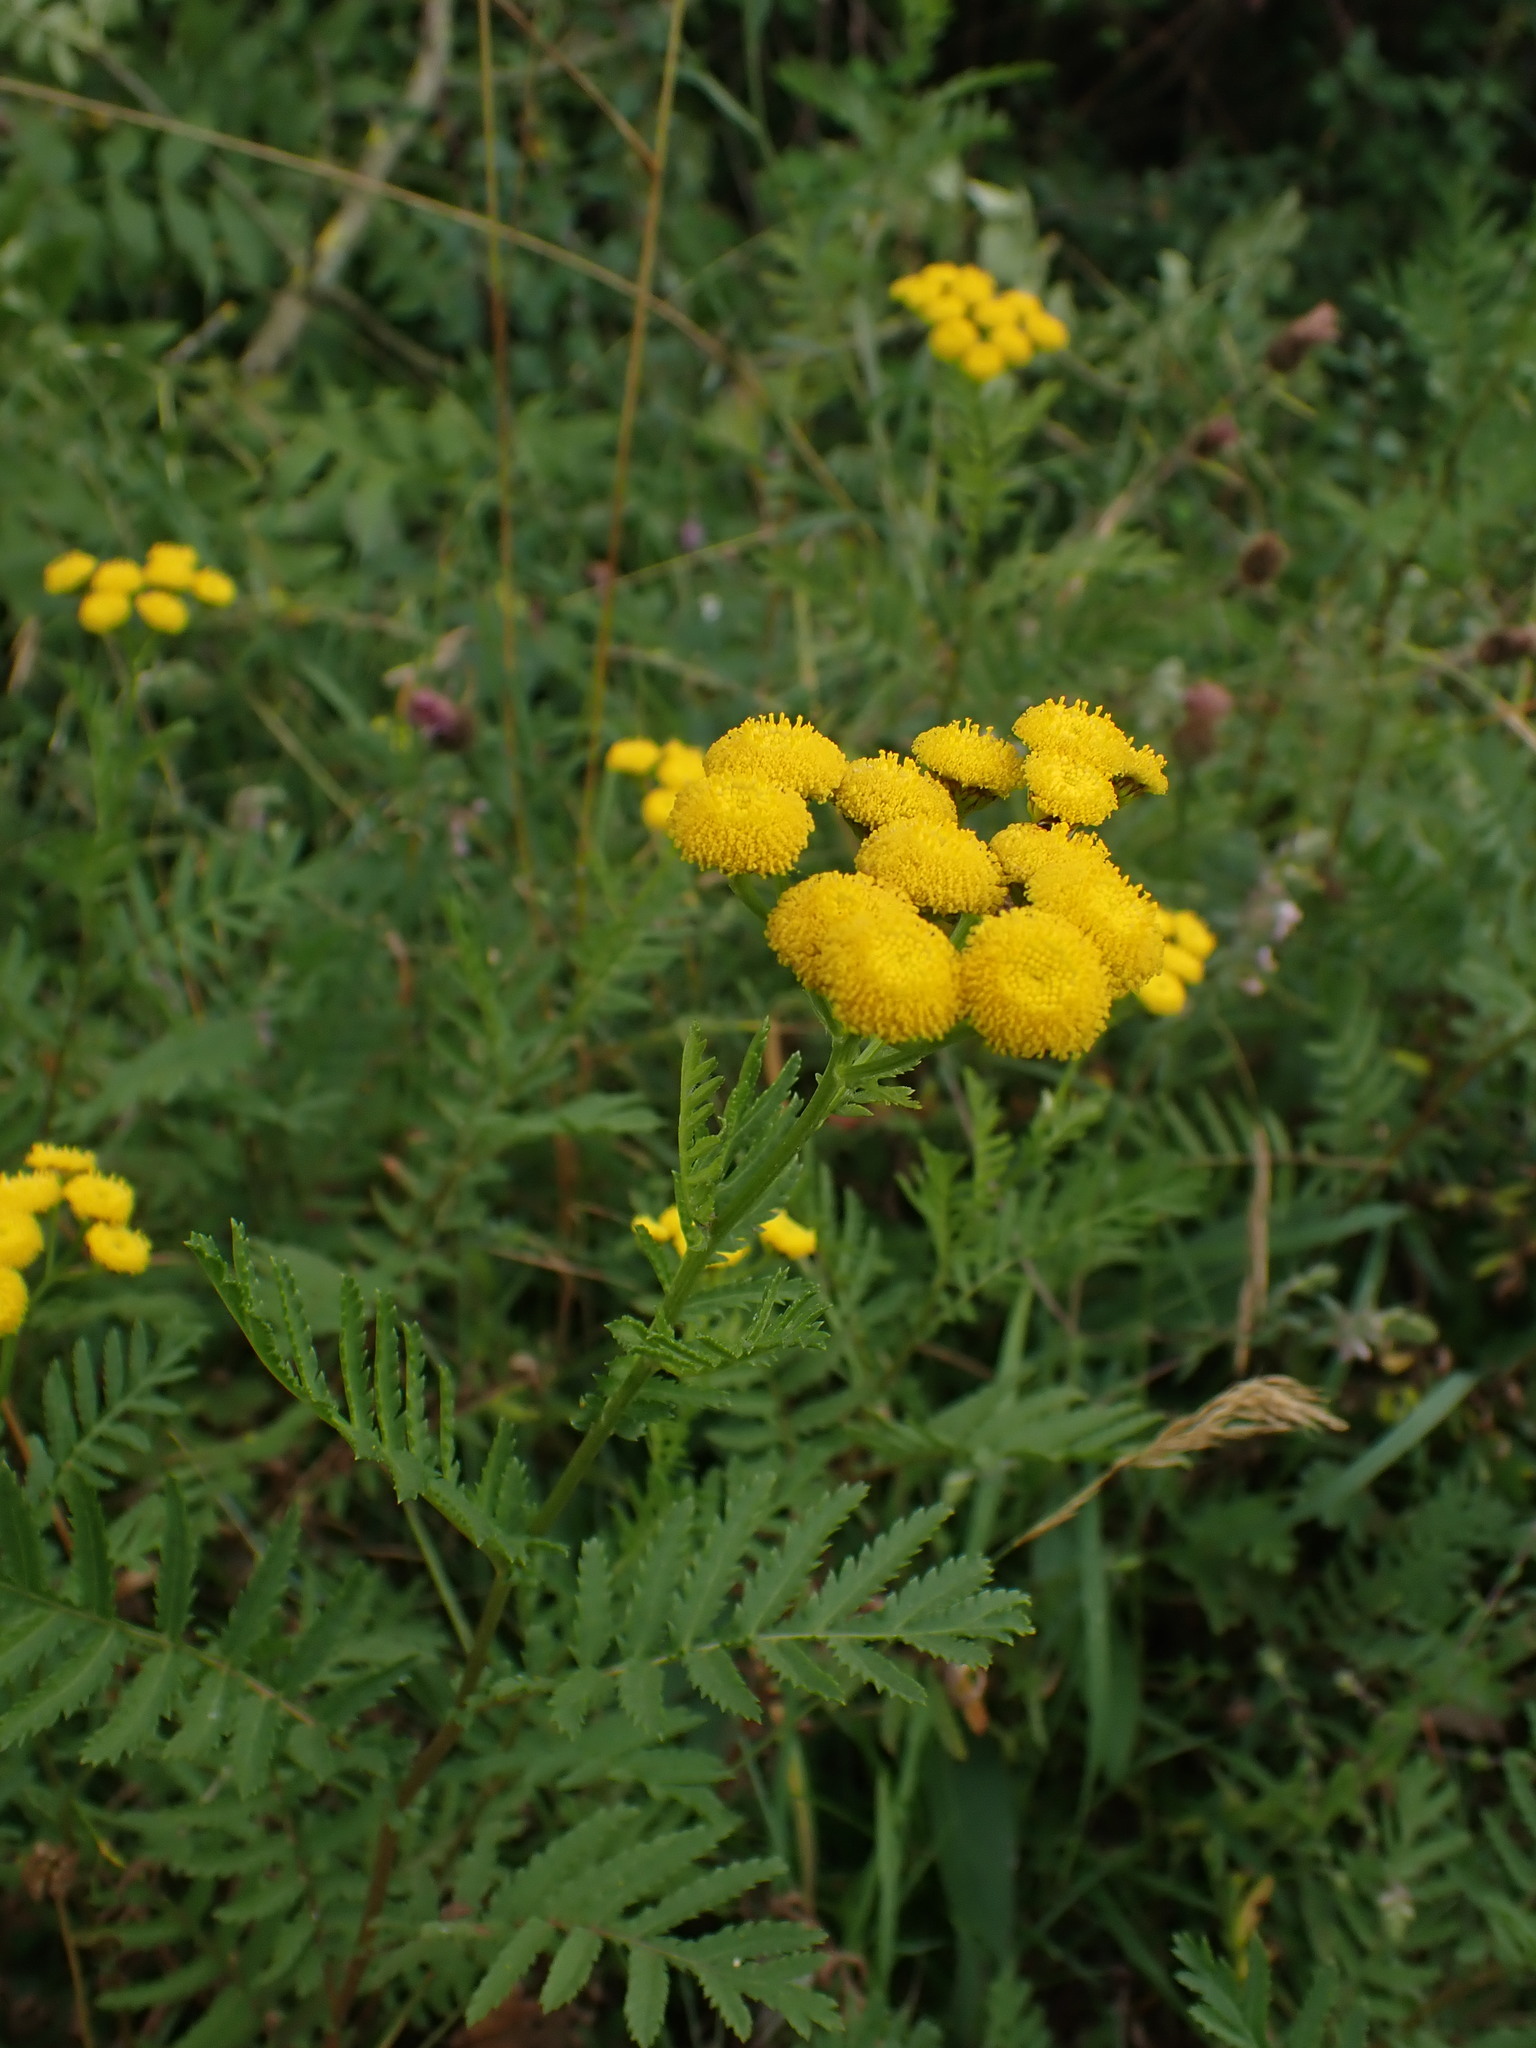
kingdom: Plantae
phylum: Tracheophyta
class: Magnoliopsida
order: Asterales
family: Asteraceae
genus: Tanacetum
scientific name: Tanacetum vulgare
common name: Common tansy
